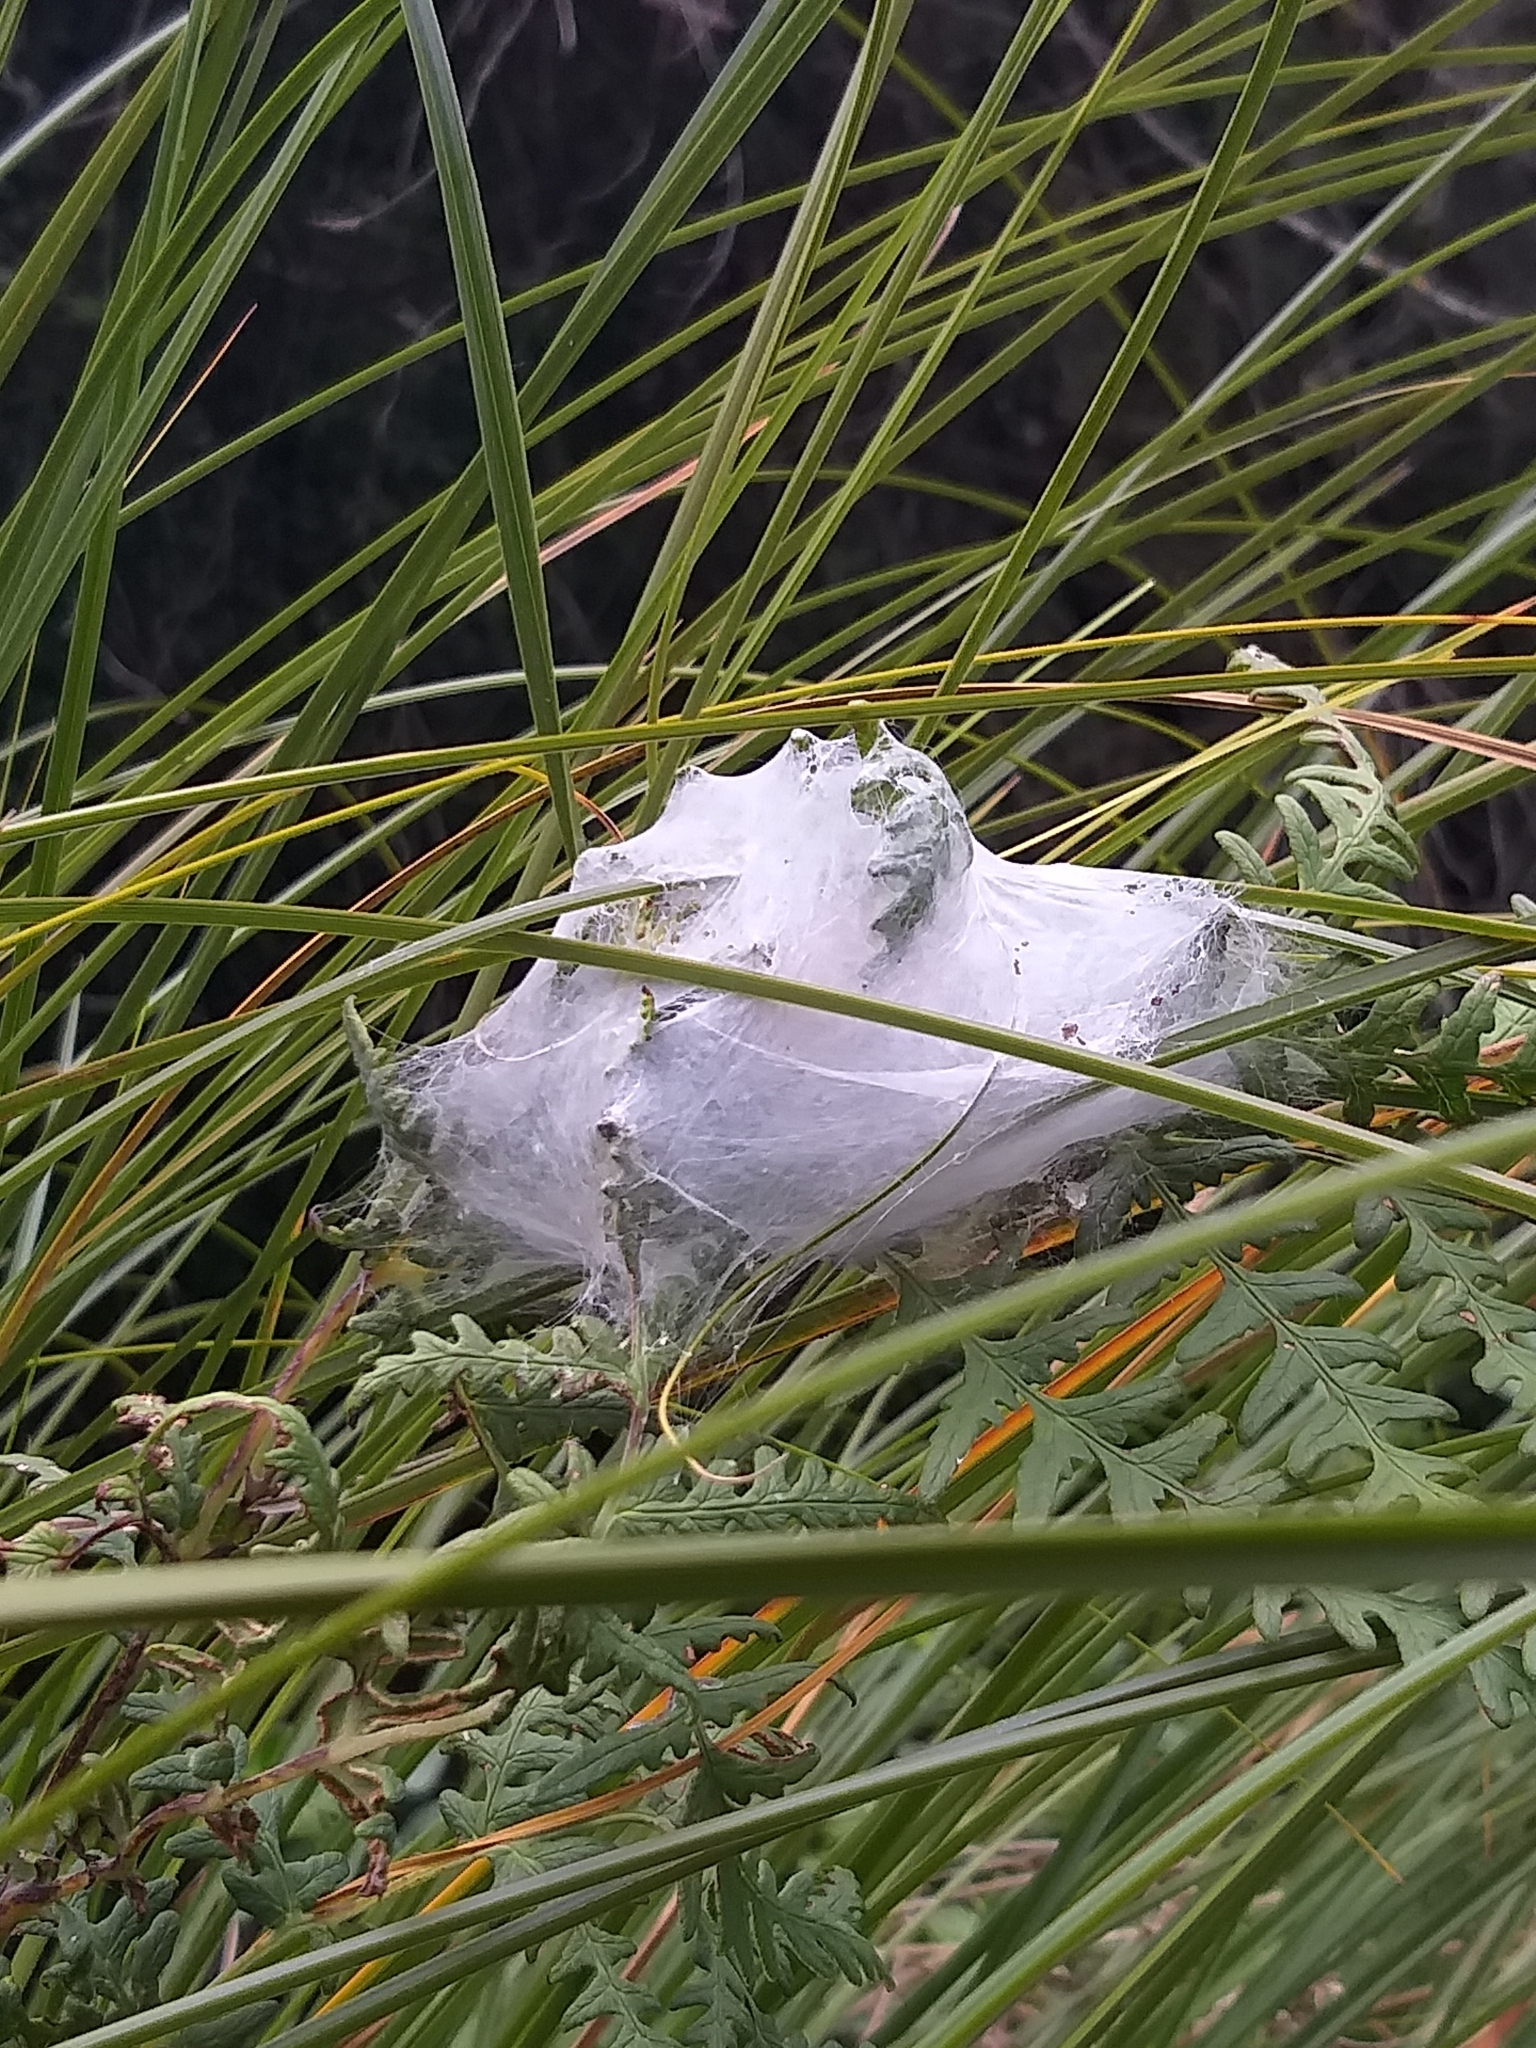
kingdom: Animalia
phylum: Arthropoda
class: Arachnida
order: Araneae
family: Pisauridae
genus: Dolomedes
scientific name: Dolomedes minor
